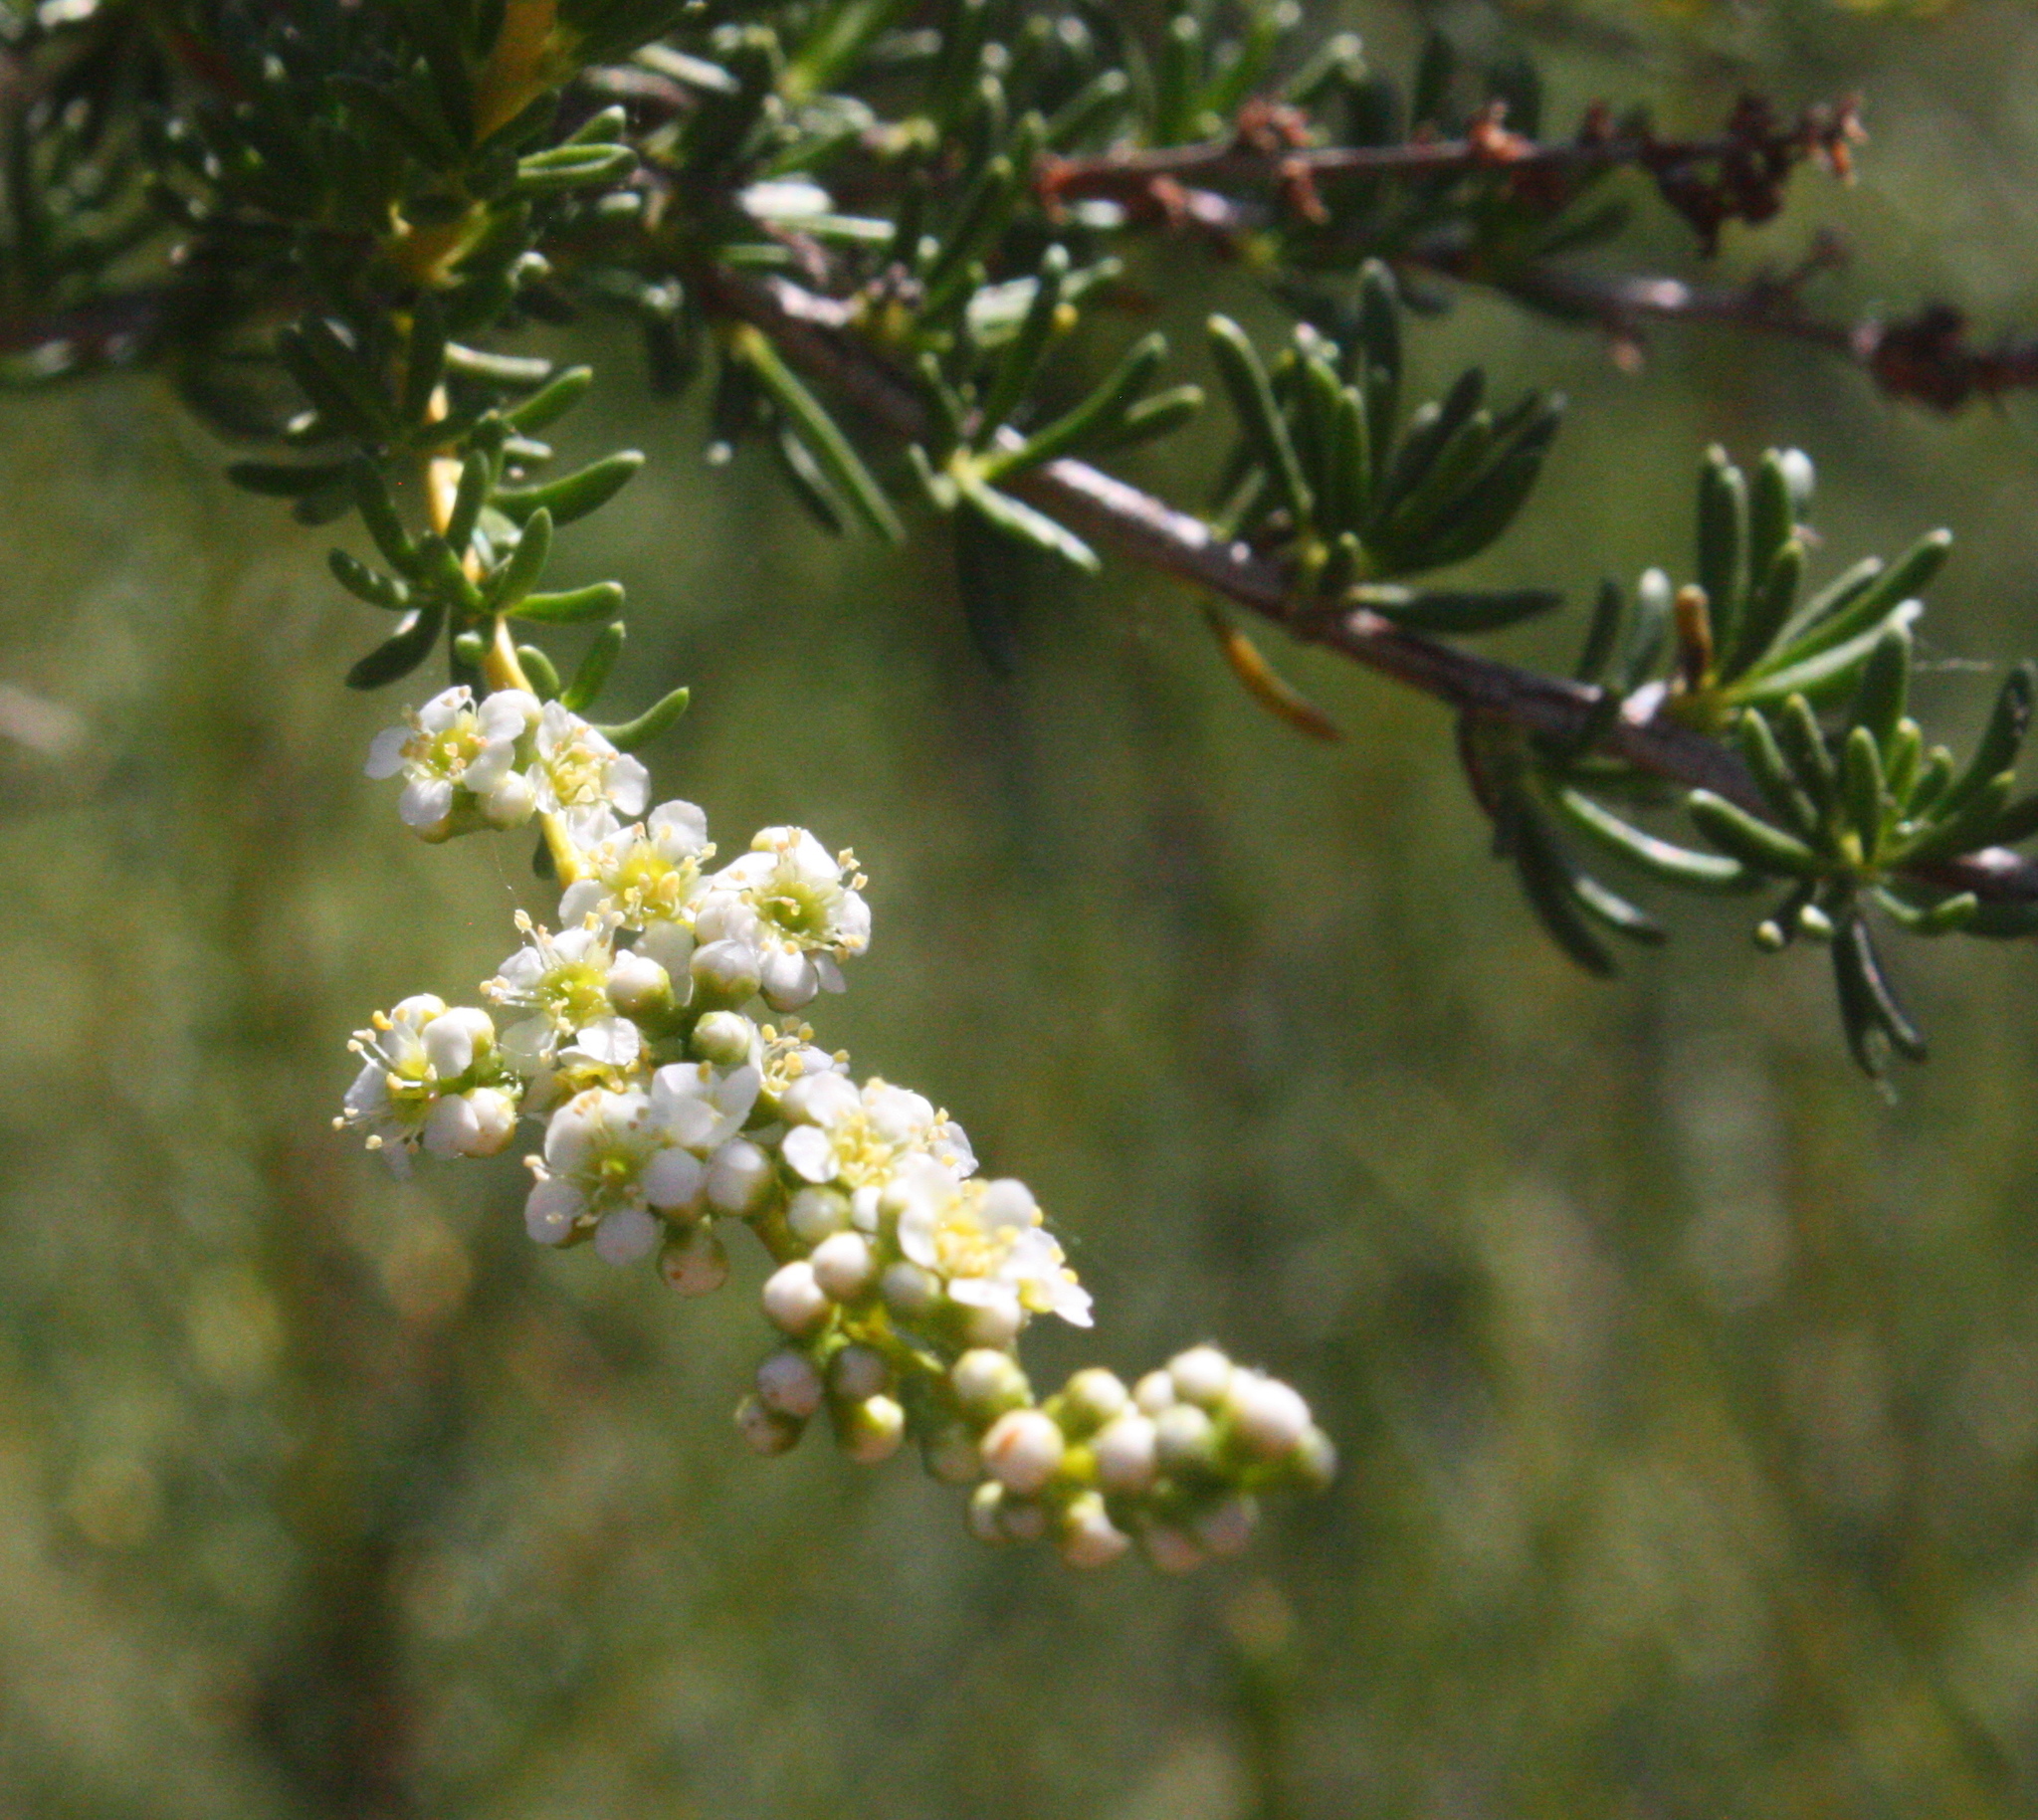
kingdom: Plantae
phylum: Tracheophyta
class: Magnoliopsida
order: Rosales
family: Rosaceae
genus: Adenostoma
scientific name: Adenostoma fasciculatum
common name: Chamise
